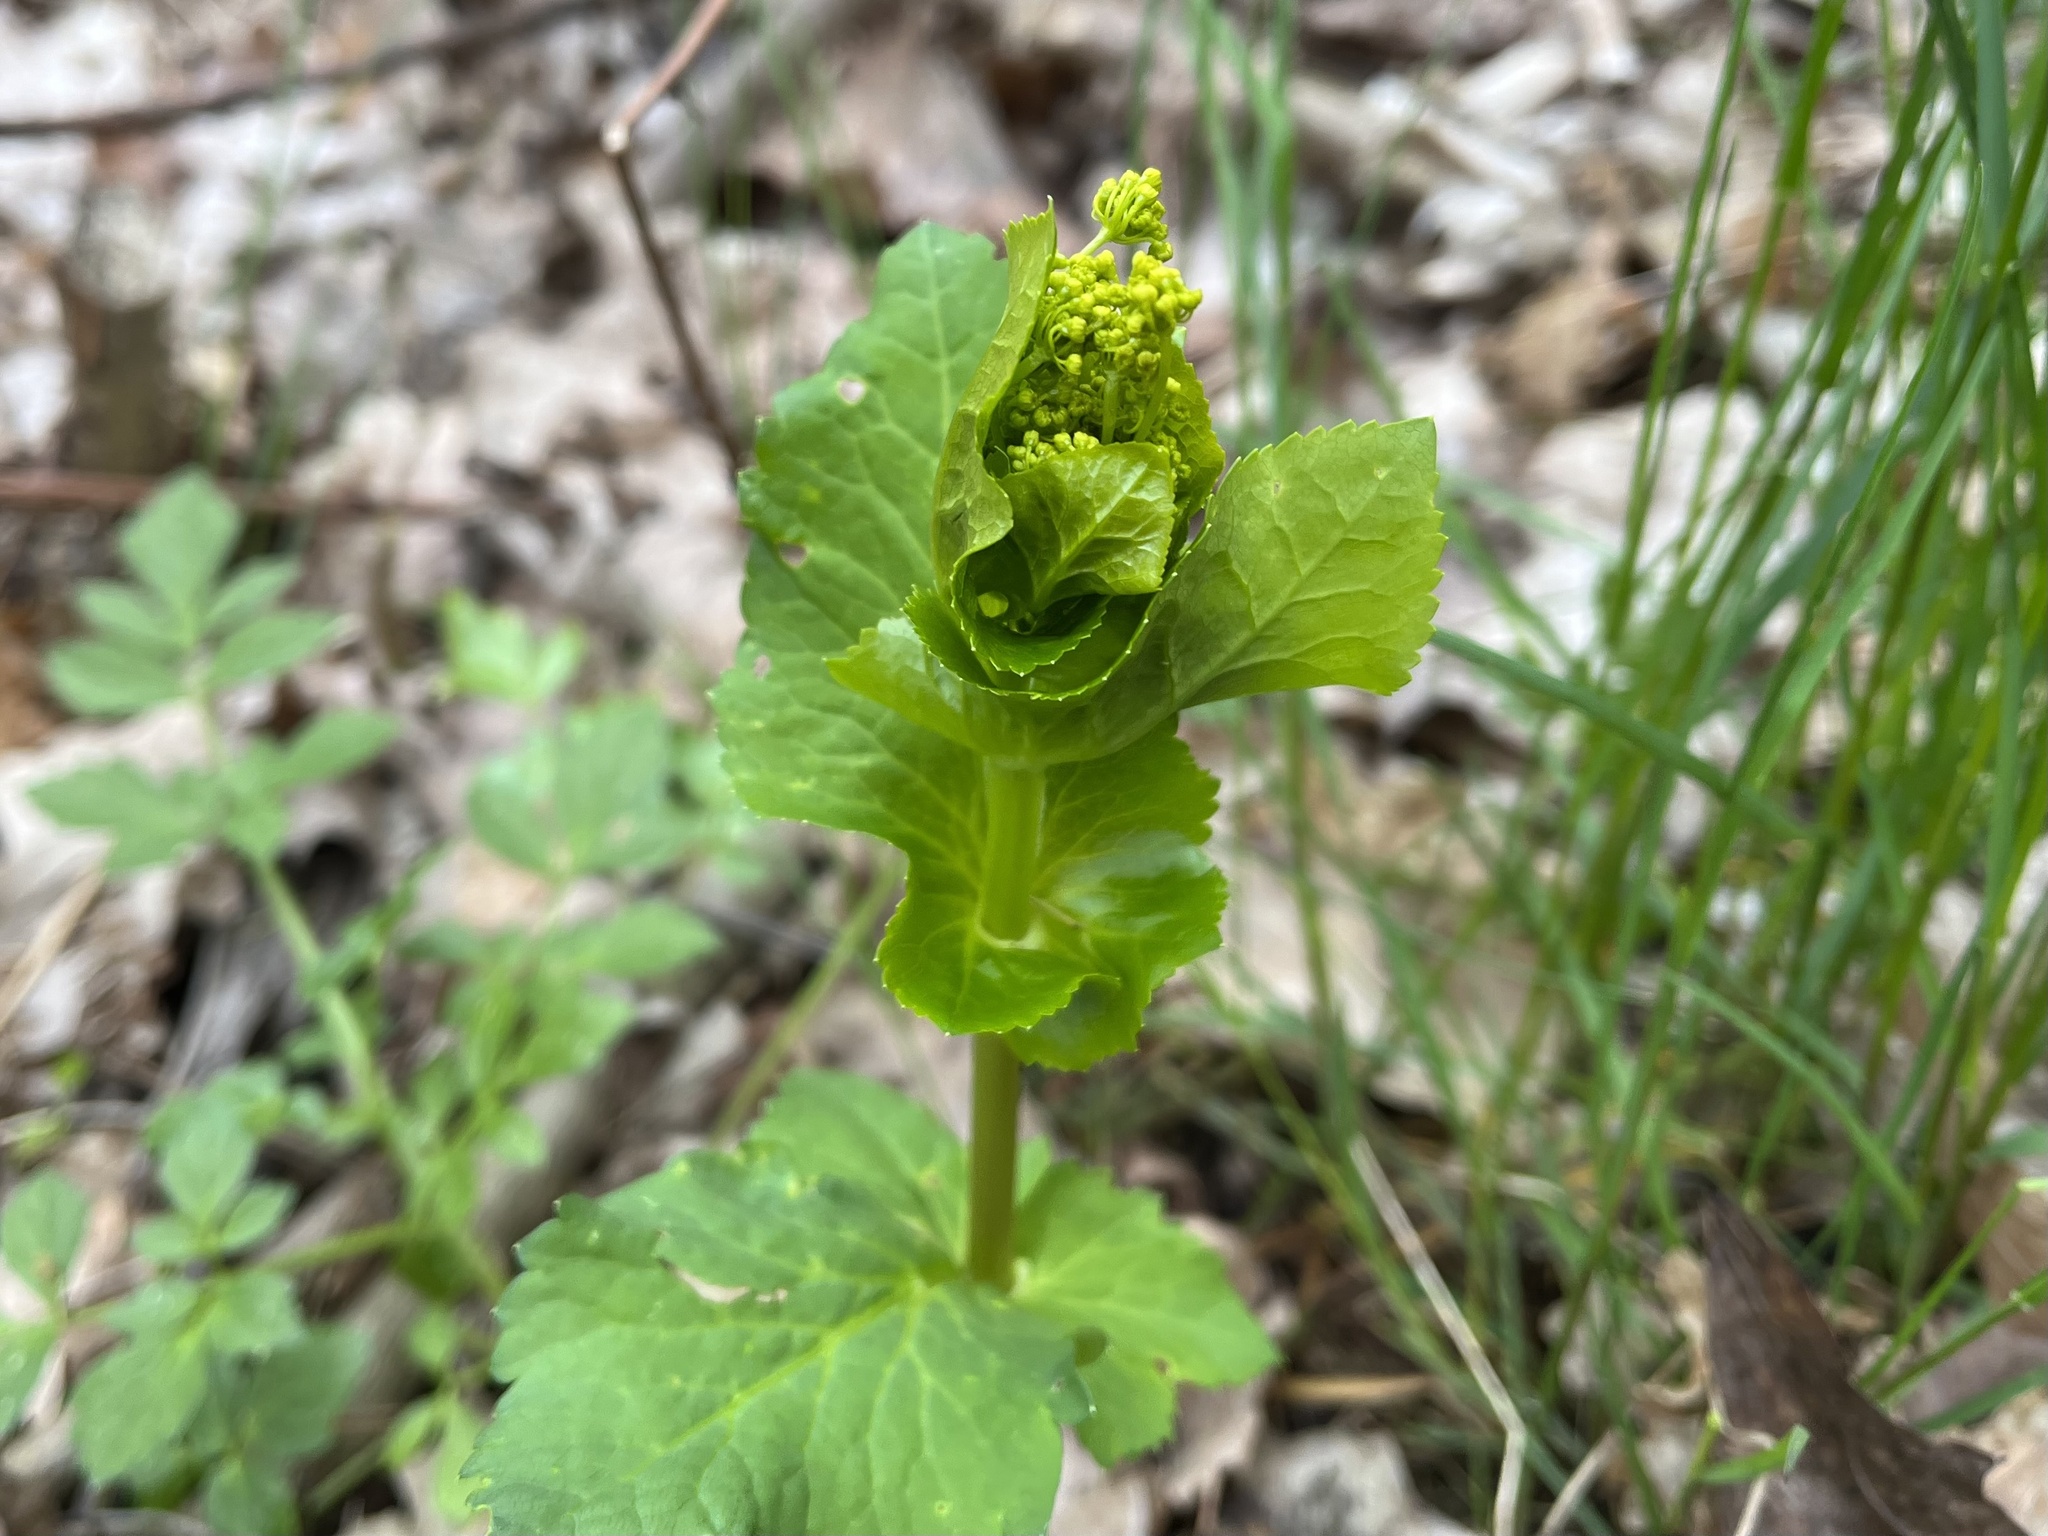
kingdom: Plantae
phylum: Tracheophyta
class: Magnoliopsida
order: Apiales
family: Apiaceae
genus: Smyrnium
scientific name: Smyrnium perfoliatum
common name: Perfoliate alexanders
